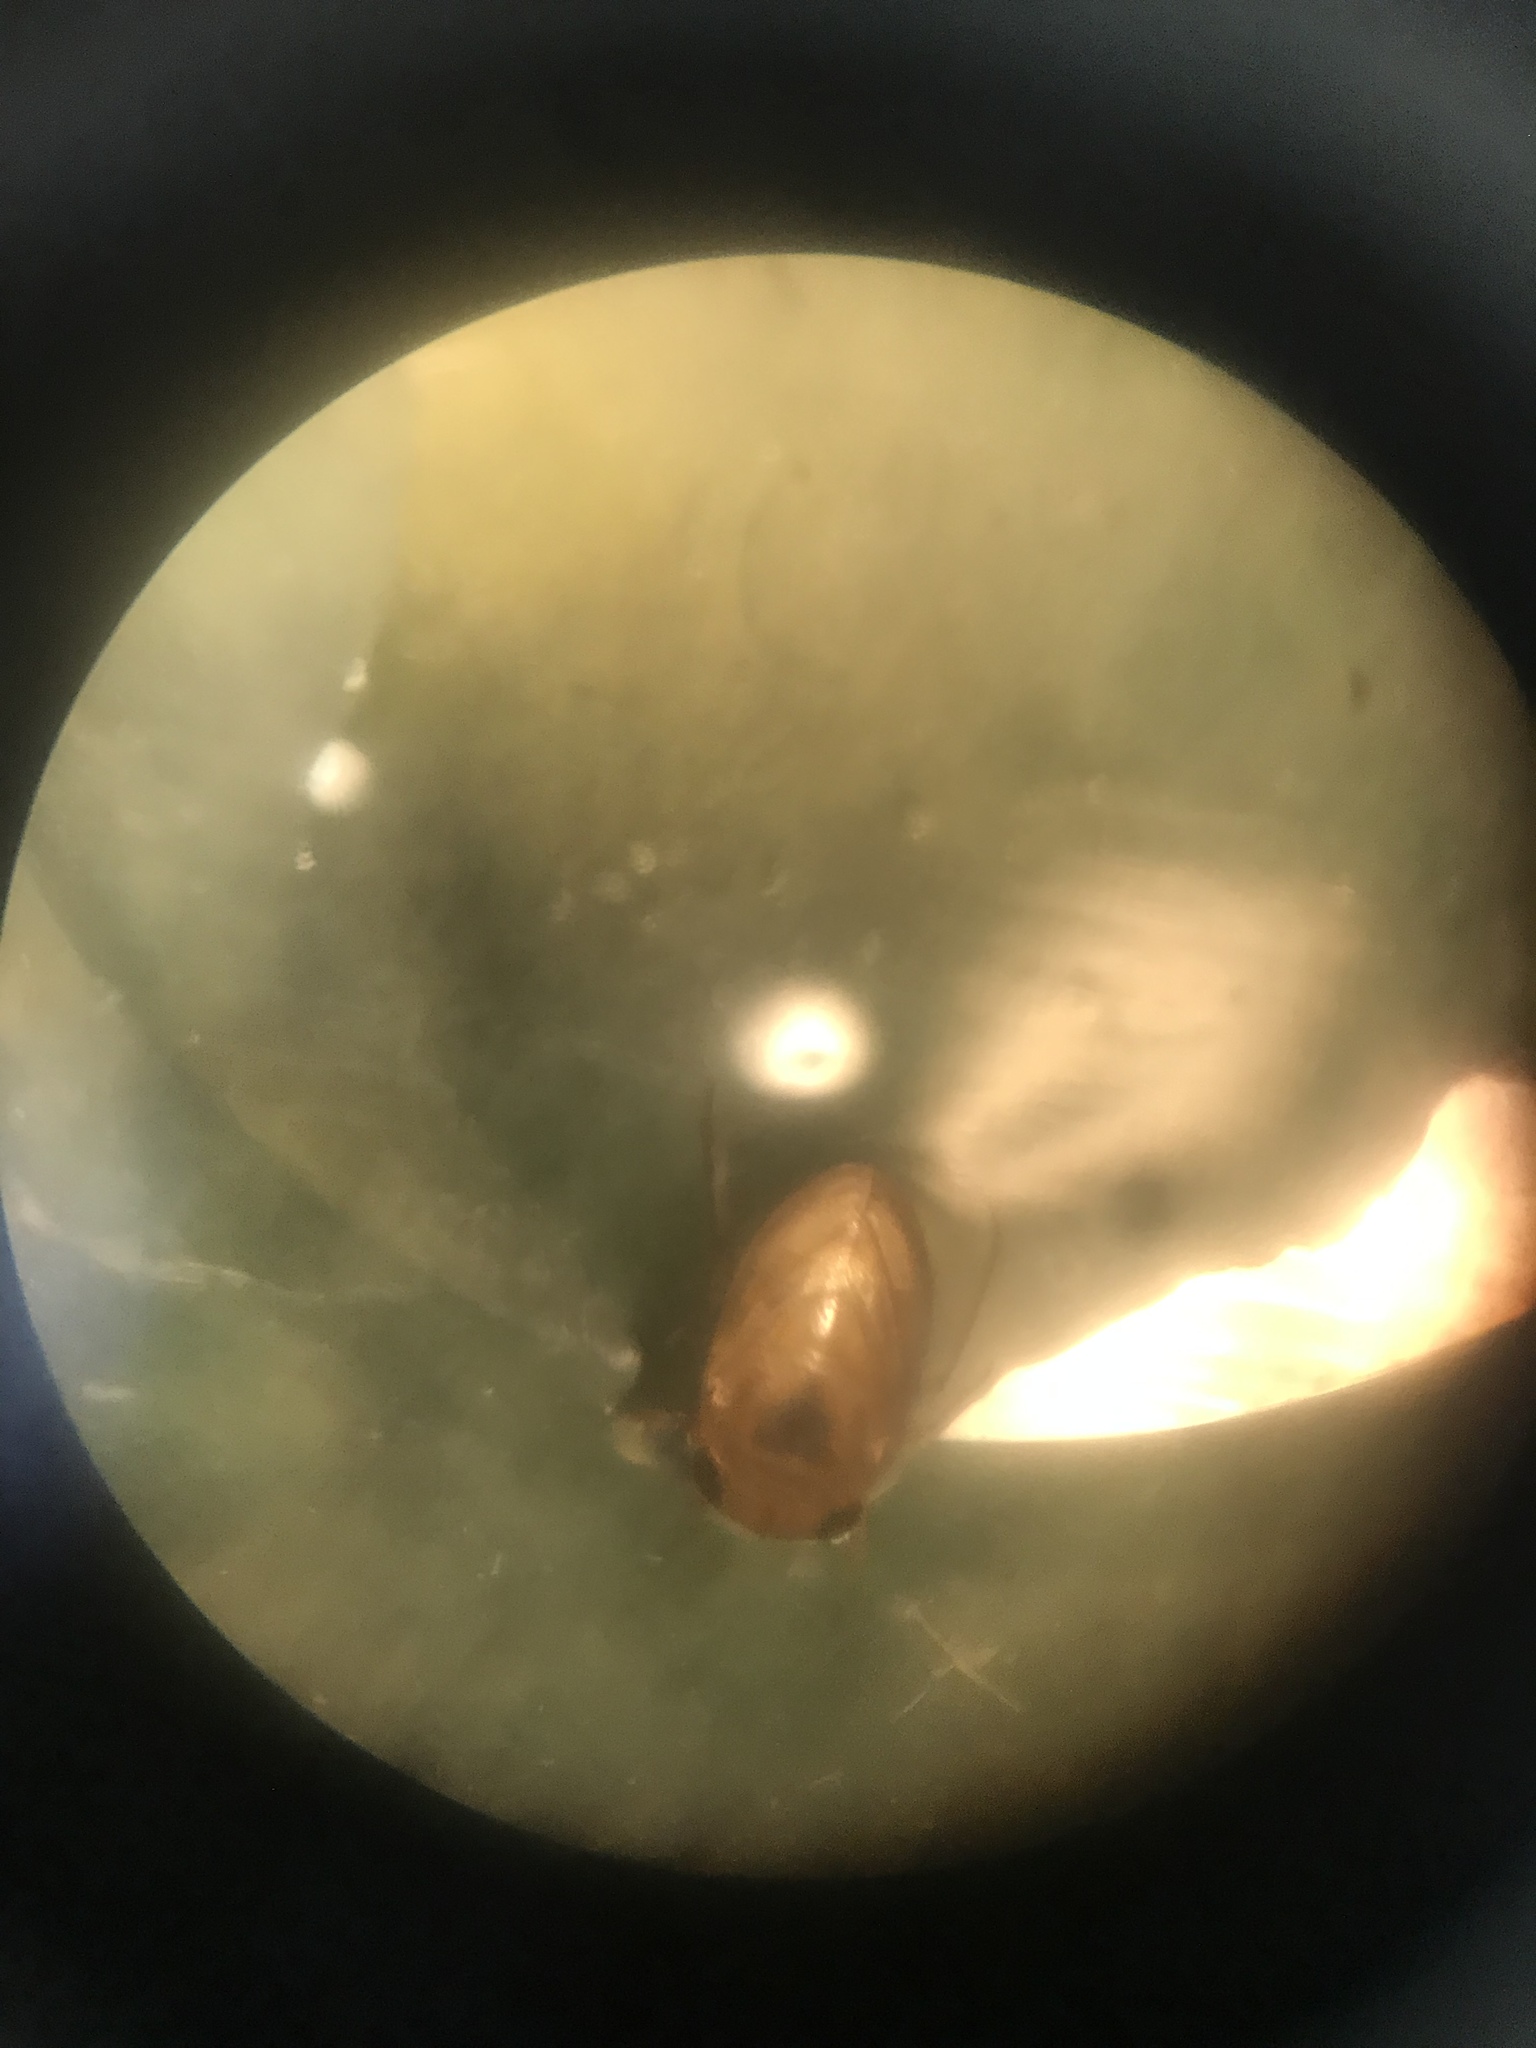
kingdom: Animalia
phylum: Arthropoda
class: Insecta
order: Hemiptera
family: Pleidae
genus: Plea
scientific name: Plea minutissima
